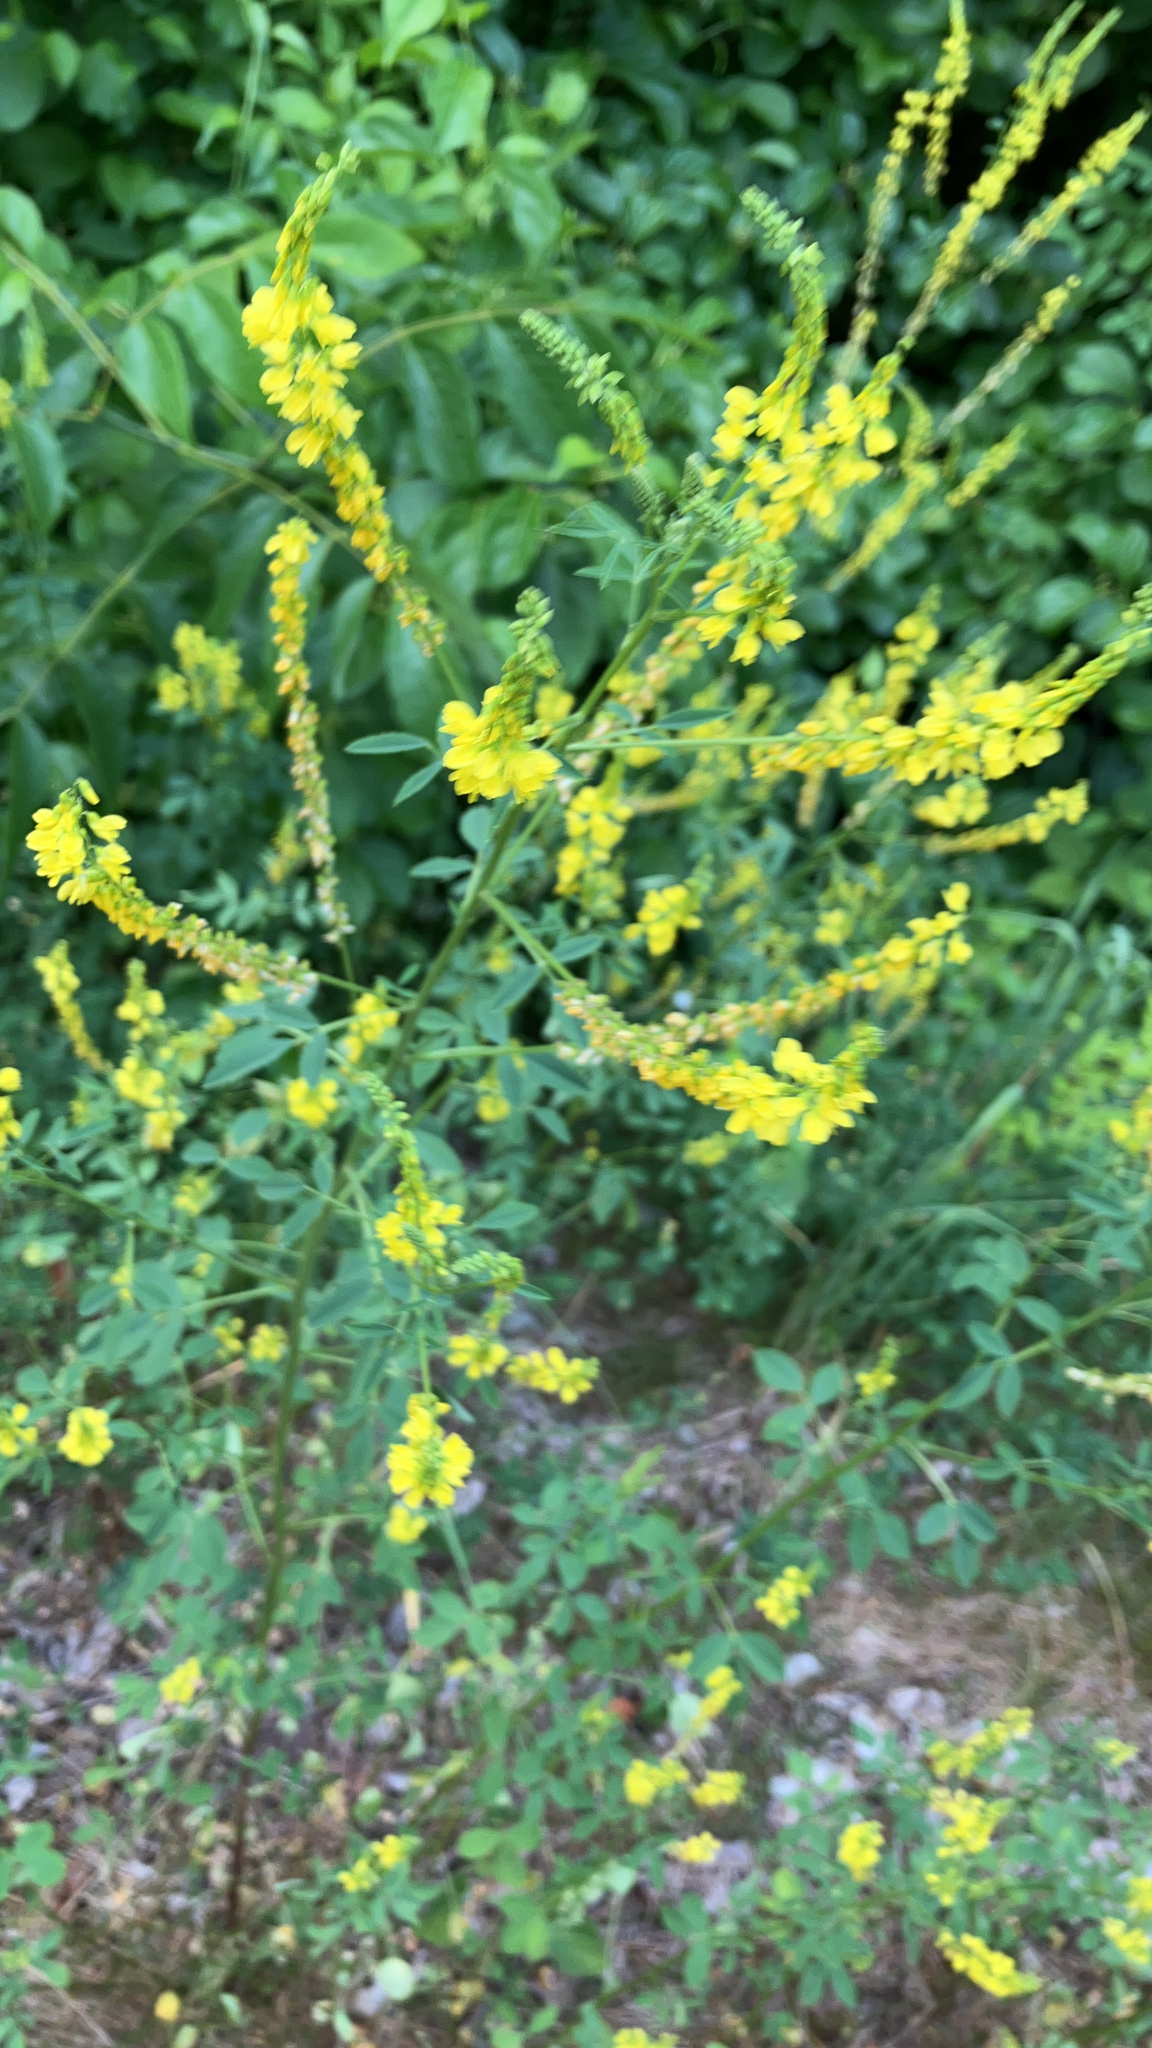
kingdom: Plantae
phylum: Tracheophyta
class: Magnoliopsida
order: Fabales
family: Fabaceae
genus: Melilotus
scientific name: Melilotus officinalis
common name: Sweetclover
